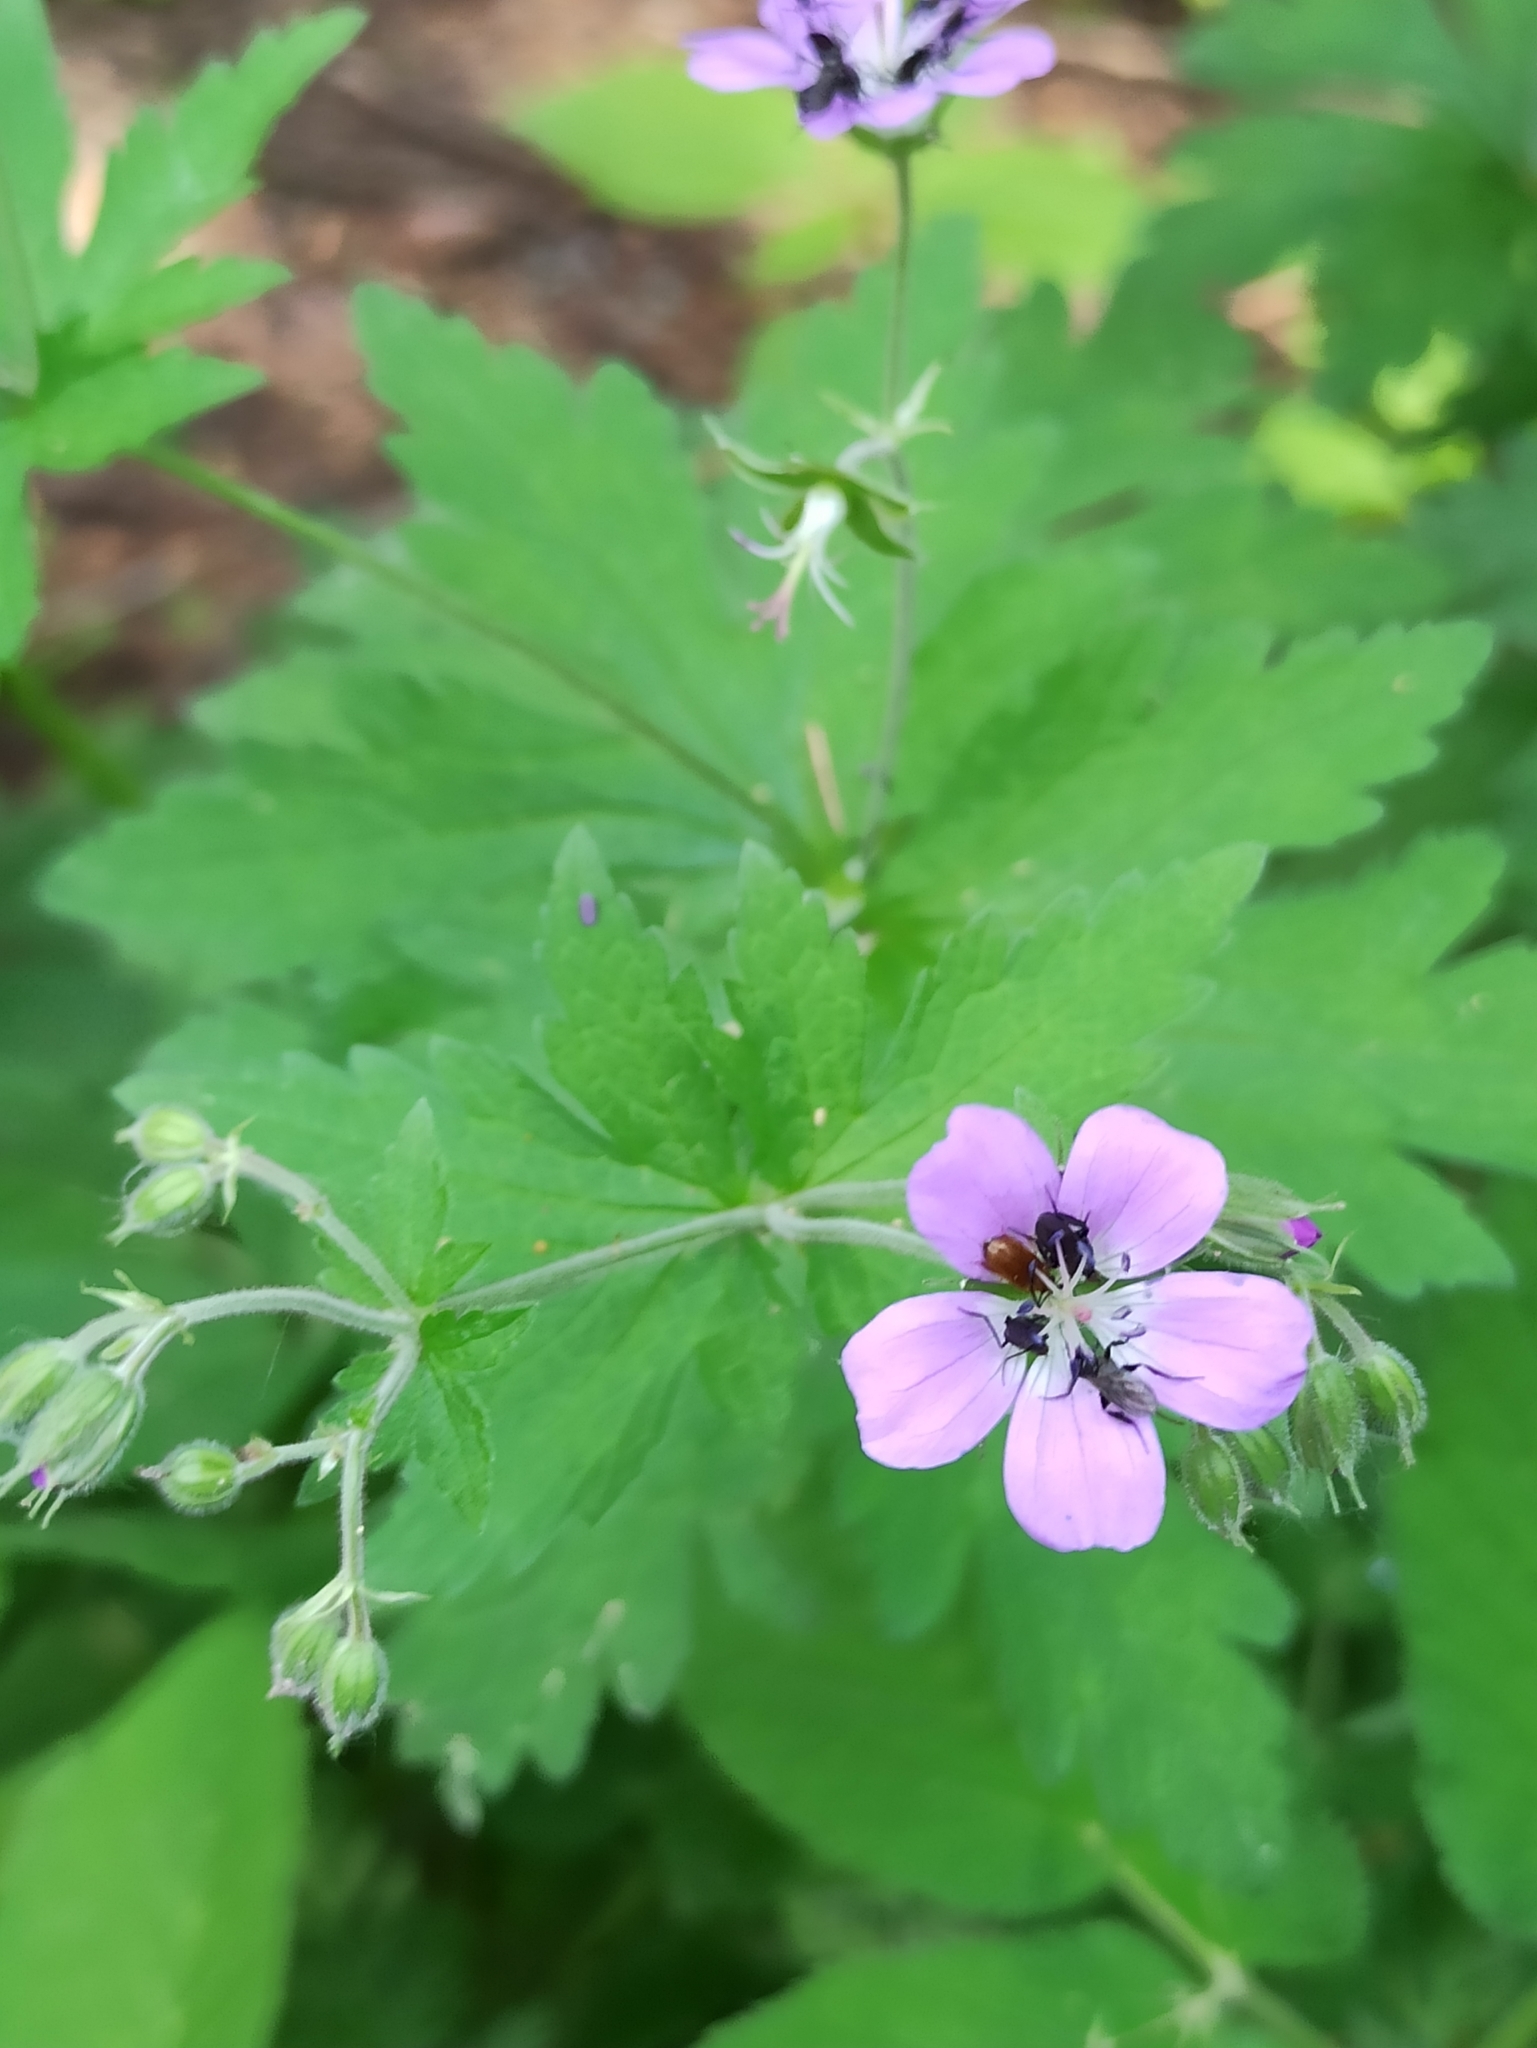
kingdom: Plantae
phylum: Tracheophyta
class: Magnoliopsida
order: Geraniales
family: Geraniaceae
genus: Geranium
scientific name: Geranium sylvaticum
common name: Wood crane's-bill
